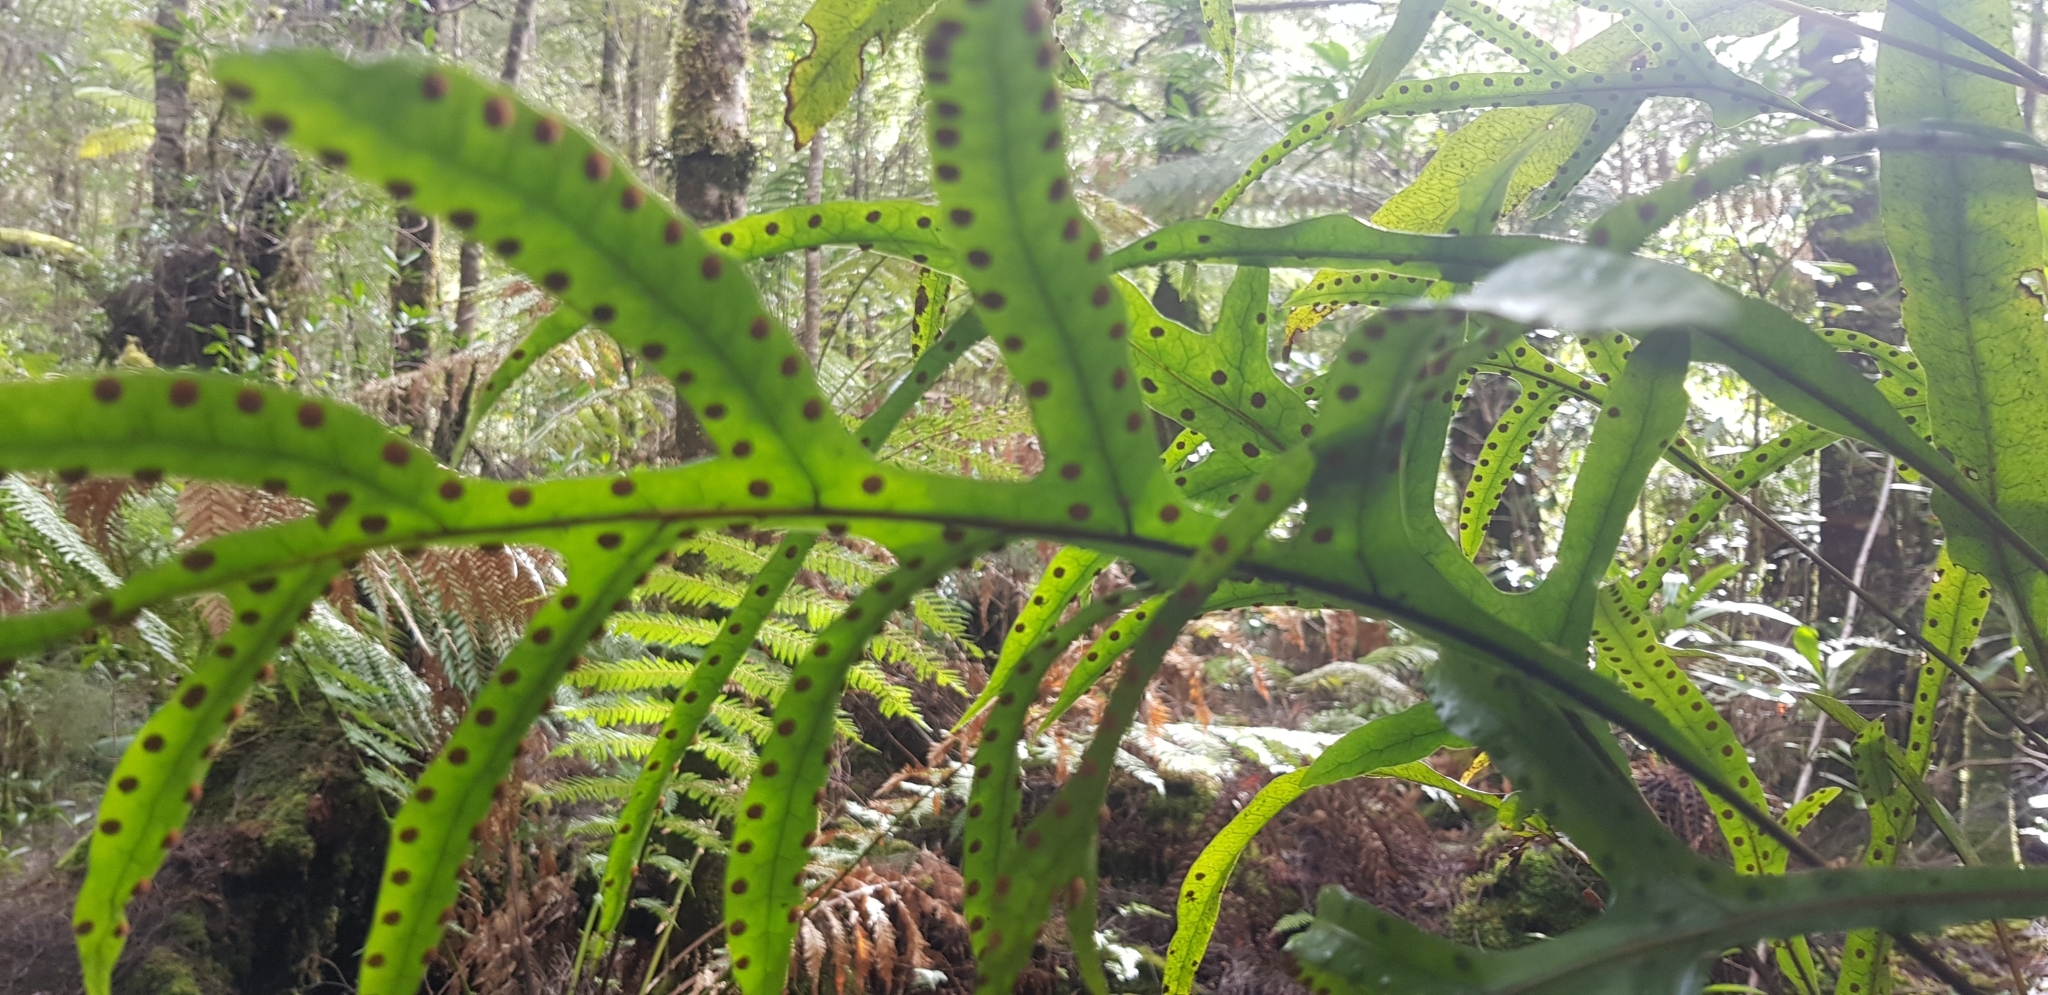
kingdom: Plantae
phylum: Tracheophyta
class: Polypodiopsida
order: Polypodiales
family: Polypodiaceae
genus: Lecanopteris
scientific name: Lecanopteris pustulata
